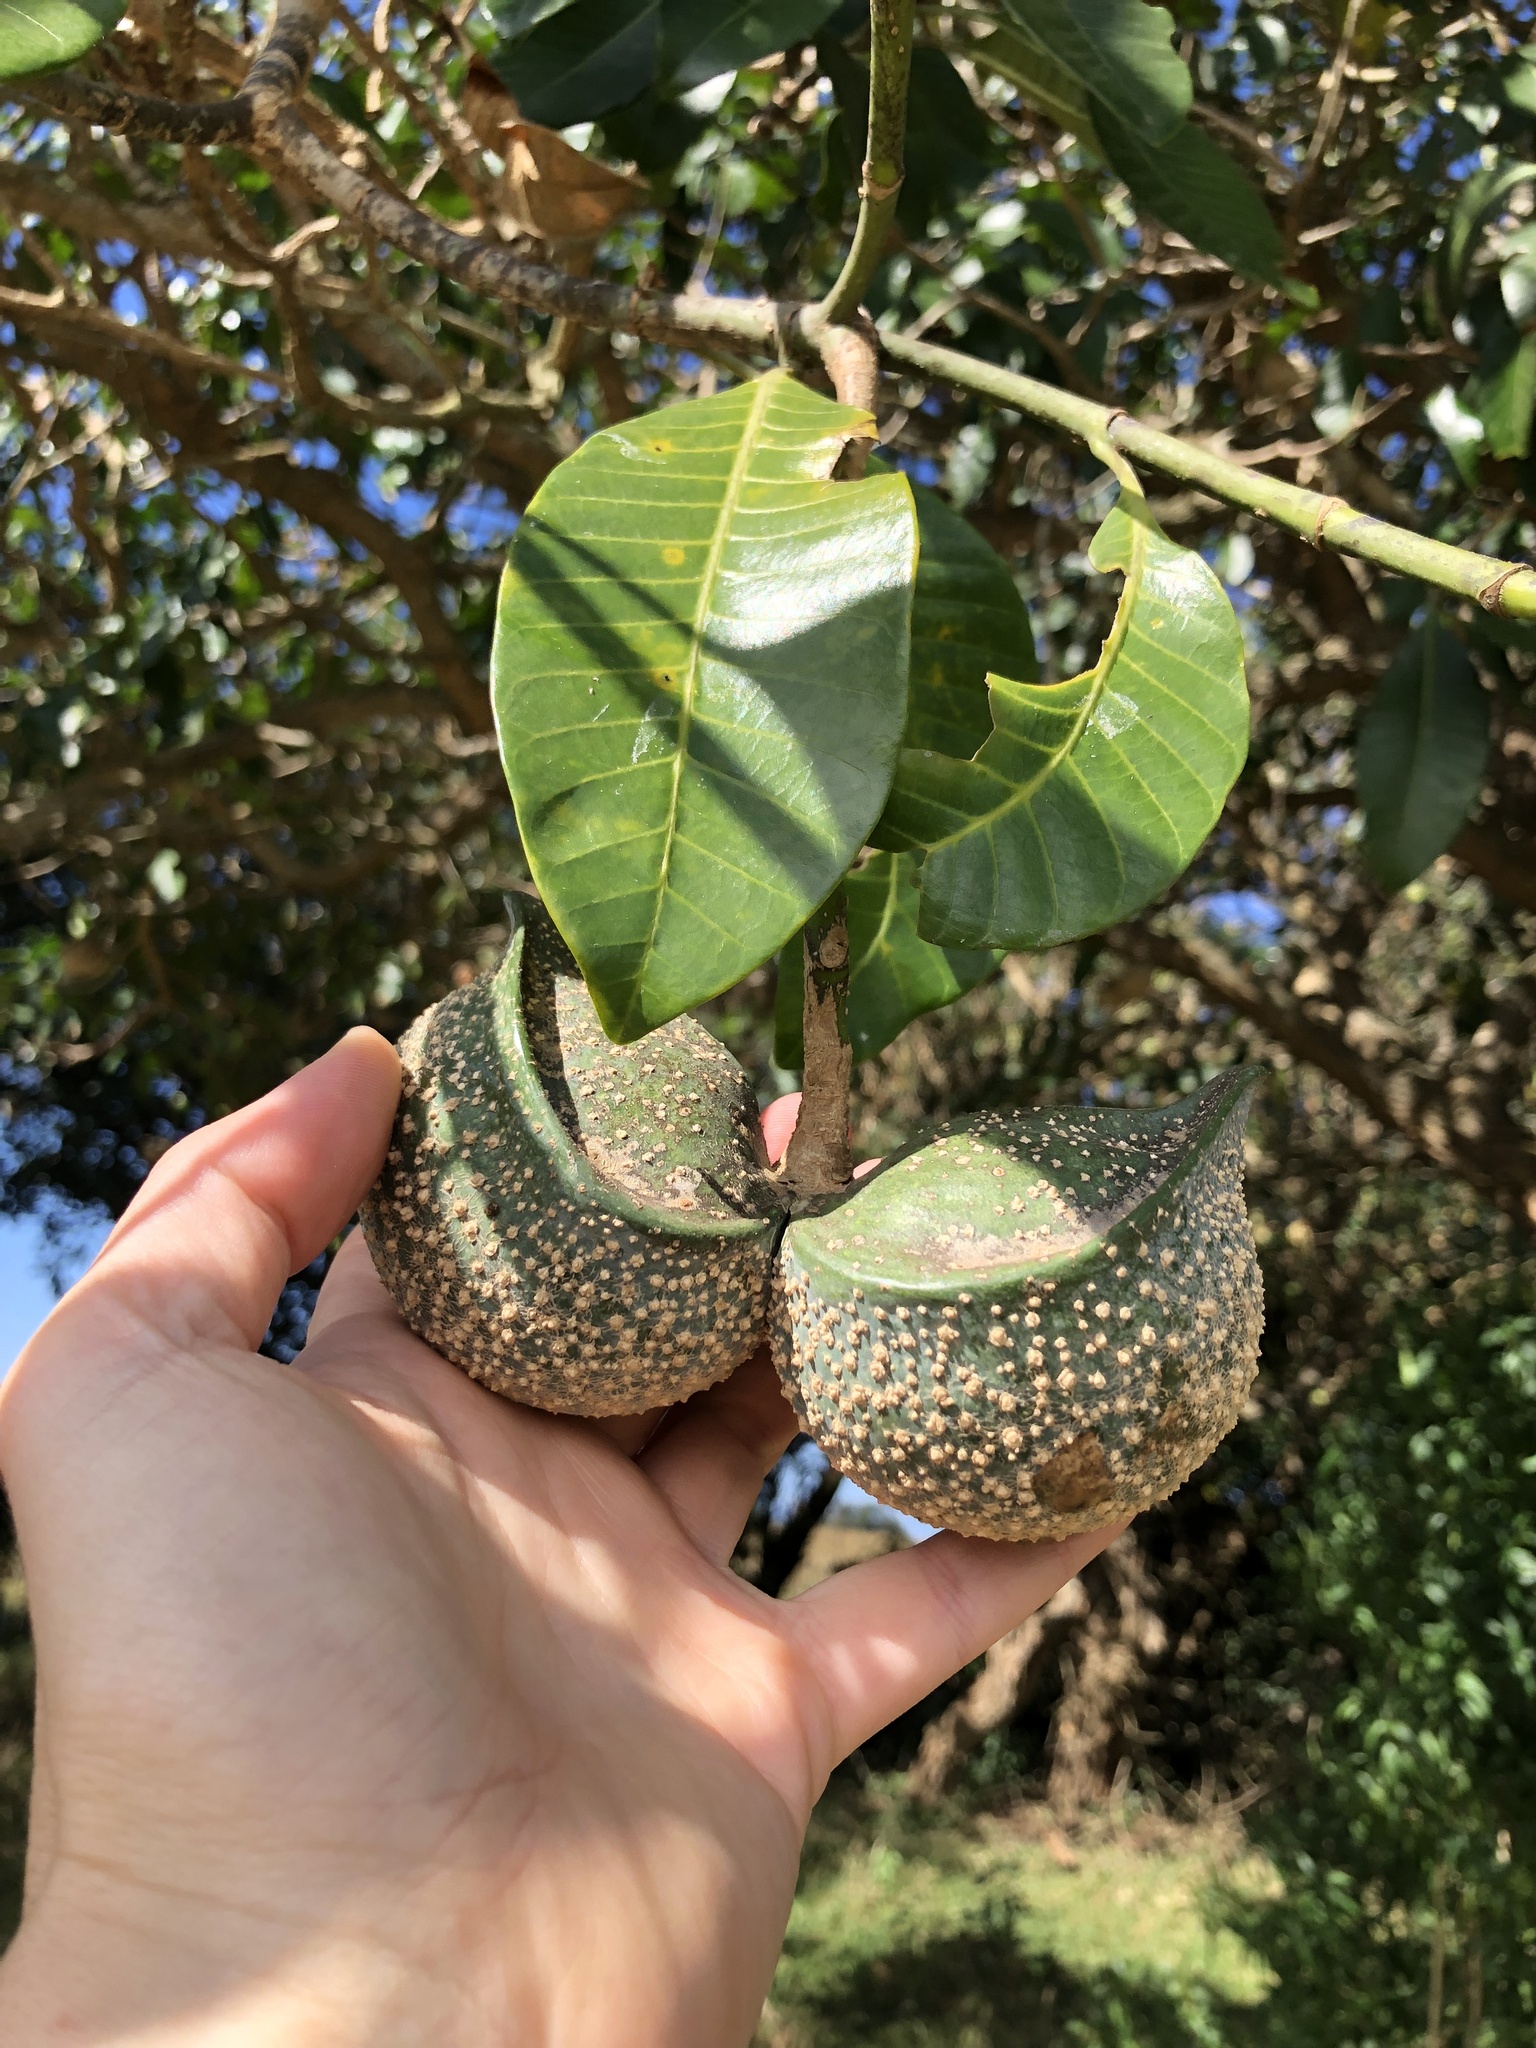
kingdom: Plantae
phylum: Tracheophyta
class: Magnoliopsida
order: Gentianales
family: Apocynaceae
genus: Tabernaemontana
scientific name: Tabernaemontana elegans
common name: Toadtree
